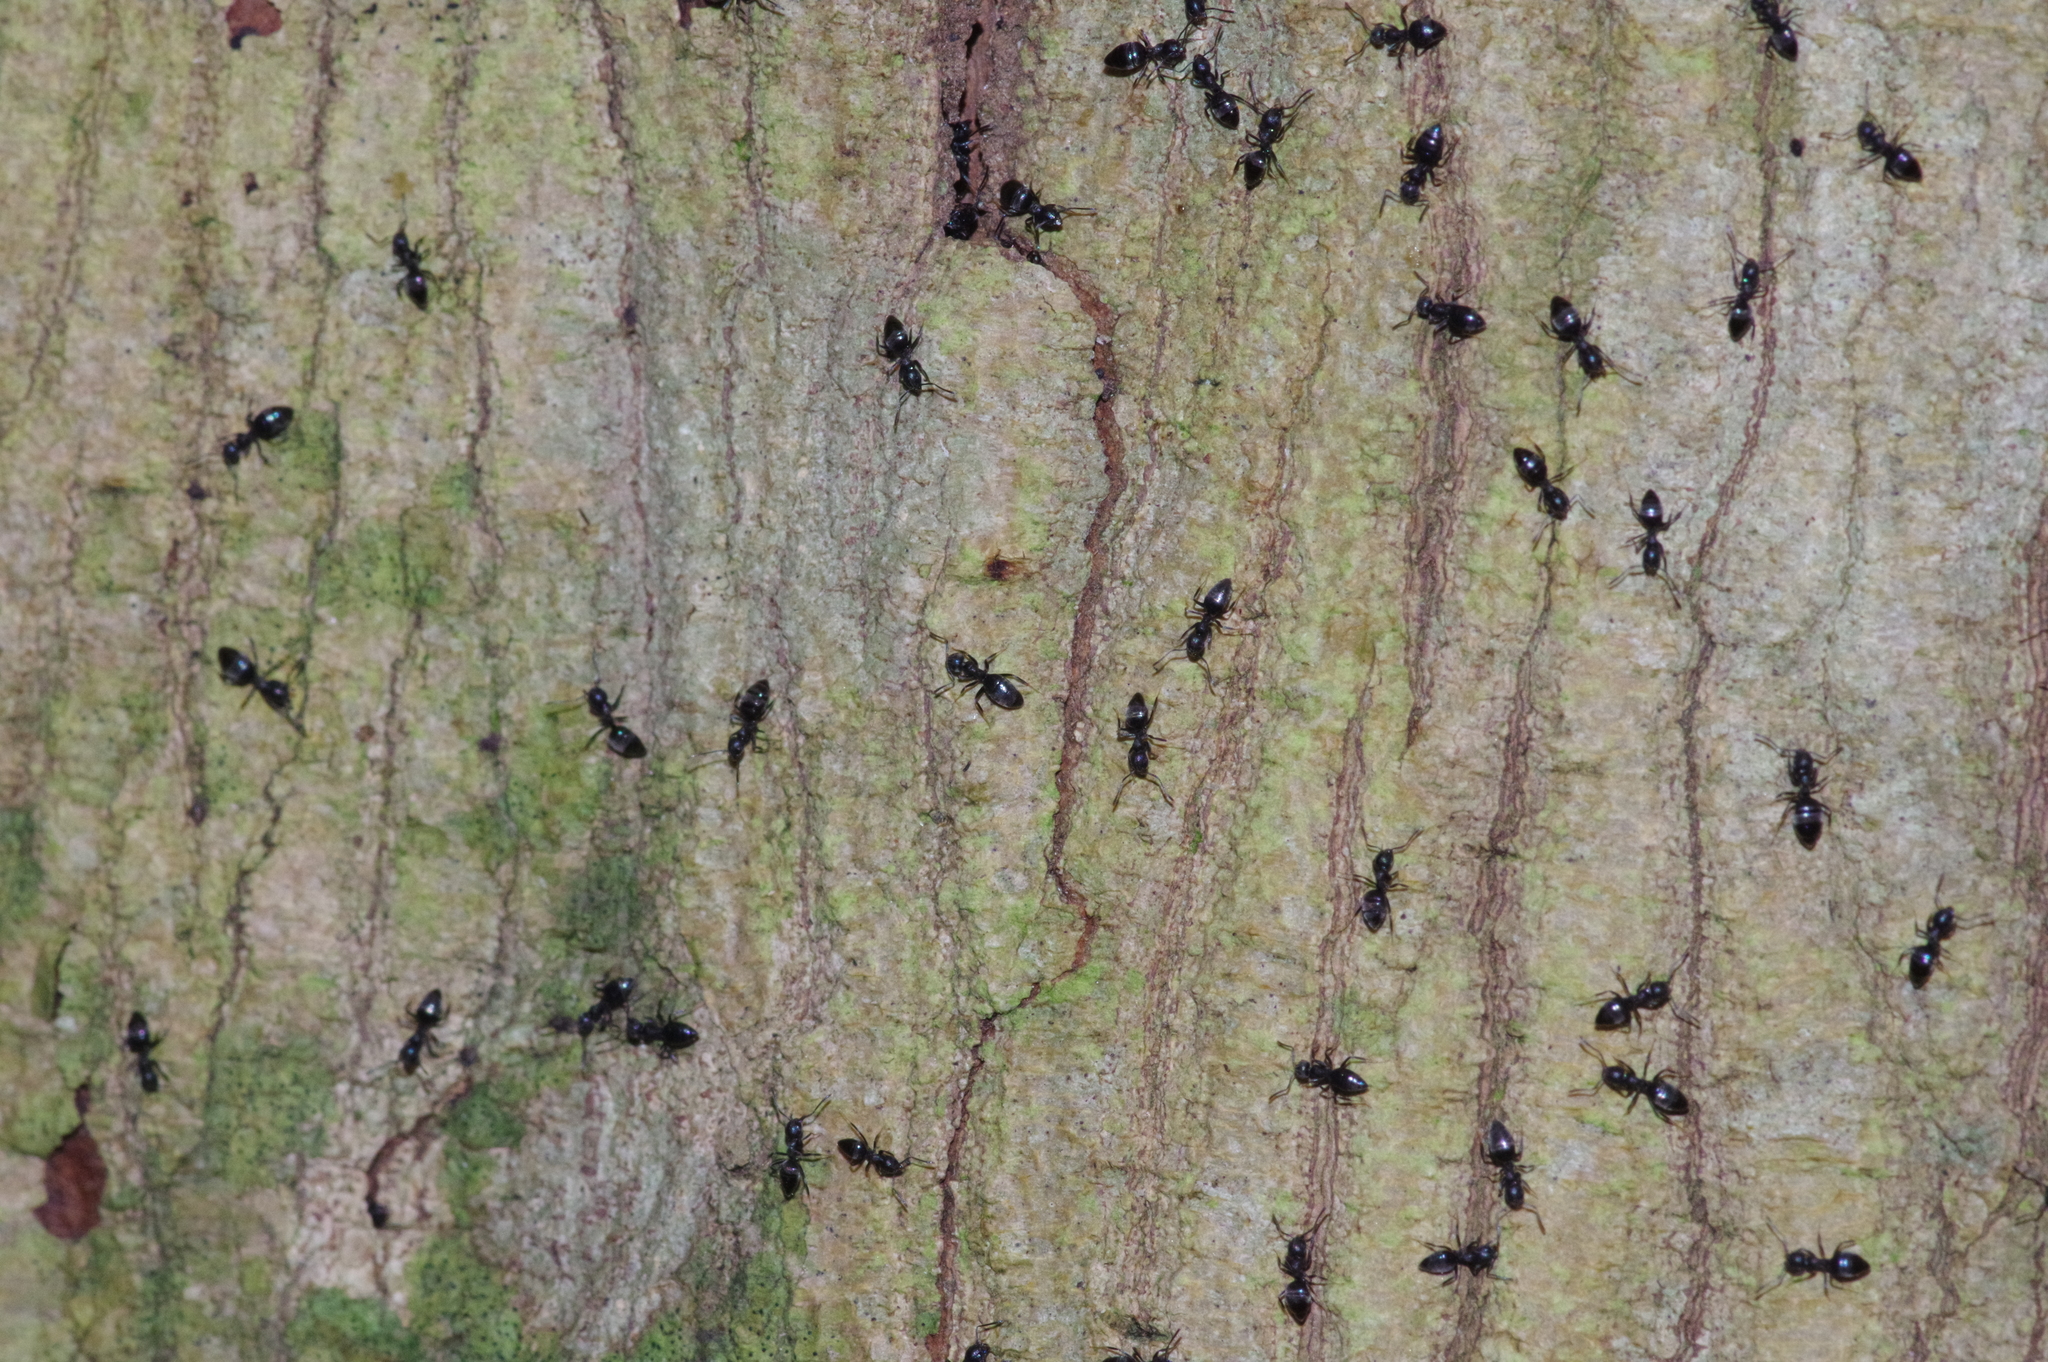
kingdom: Animalia
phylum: Arthropoda
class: Insecta
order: Hymenoptera
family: Formicidae
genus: Technomyrmex
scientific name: Technomyrmex brunneus
